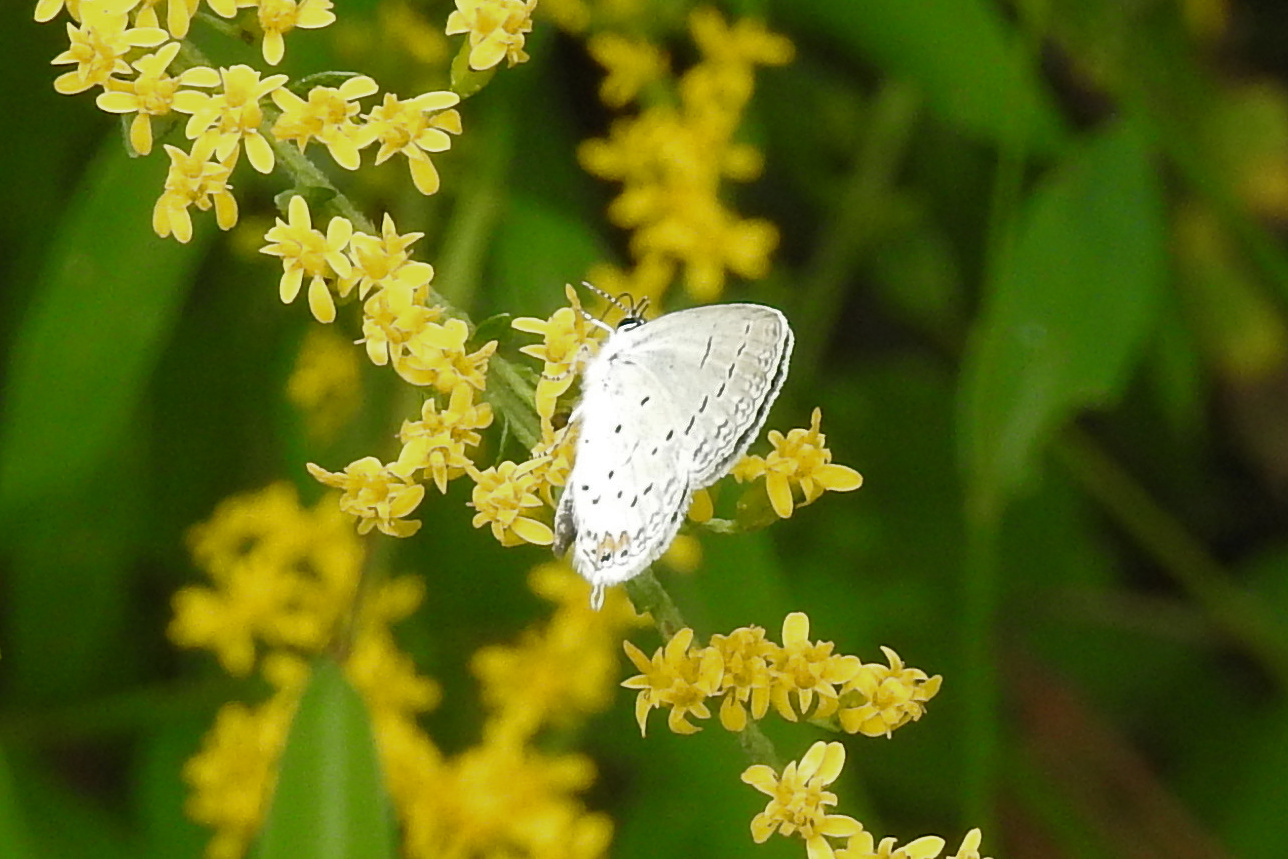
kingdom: Animalia
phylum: Arthropoda
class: Insecta
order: Lepidoptera
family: Lycaenidae
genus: Elkalyce
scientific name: Elkalyce comyntas
